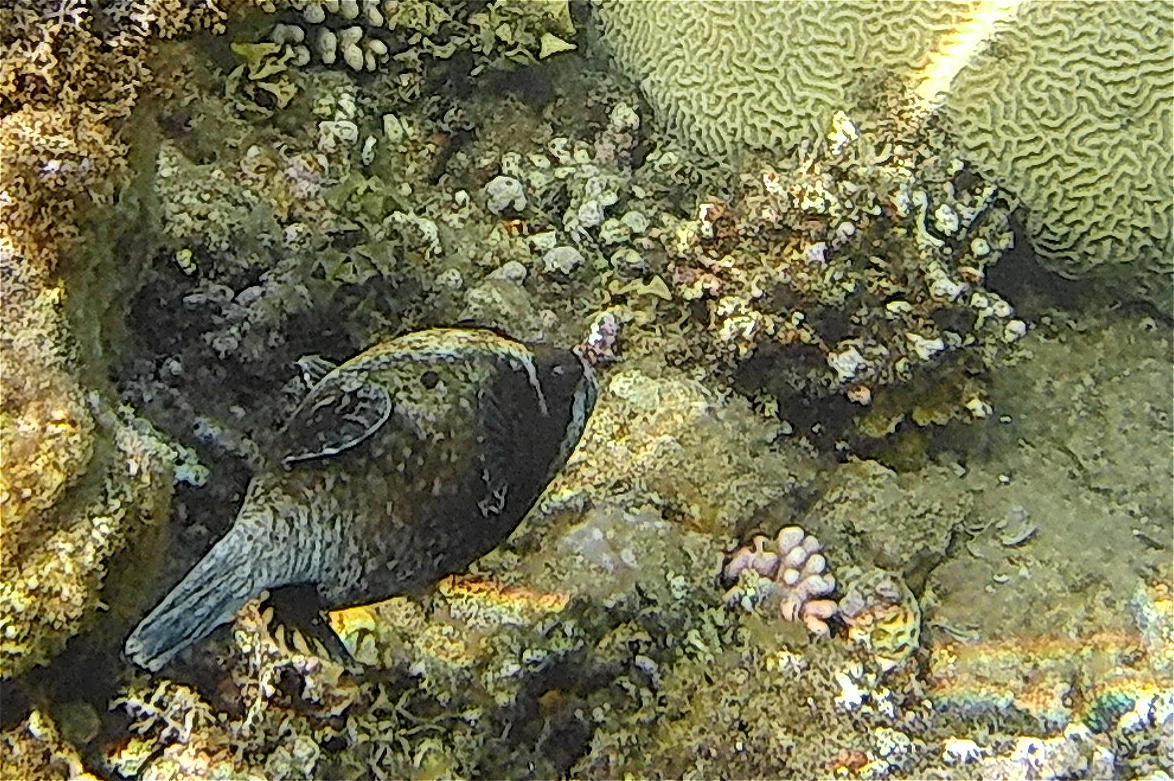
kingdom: Animalia
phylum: Chordata
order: Tetraodontiformes
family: Tetraodontidae
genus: Arothron
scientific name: Arothron diadematus
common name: Masked puffer
